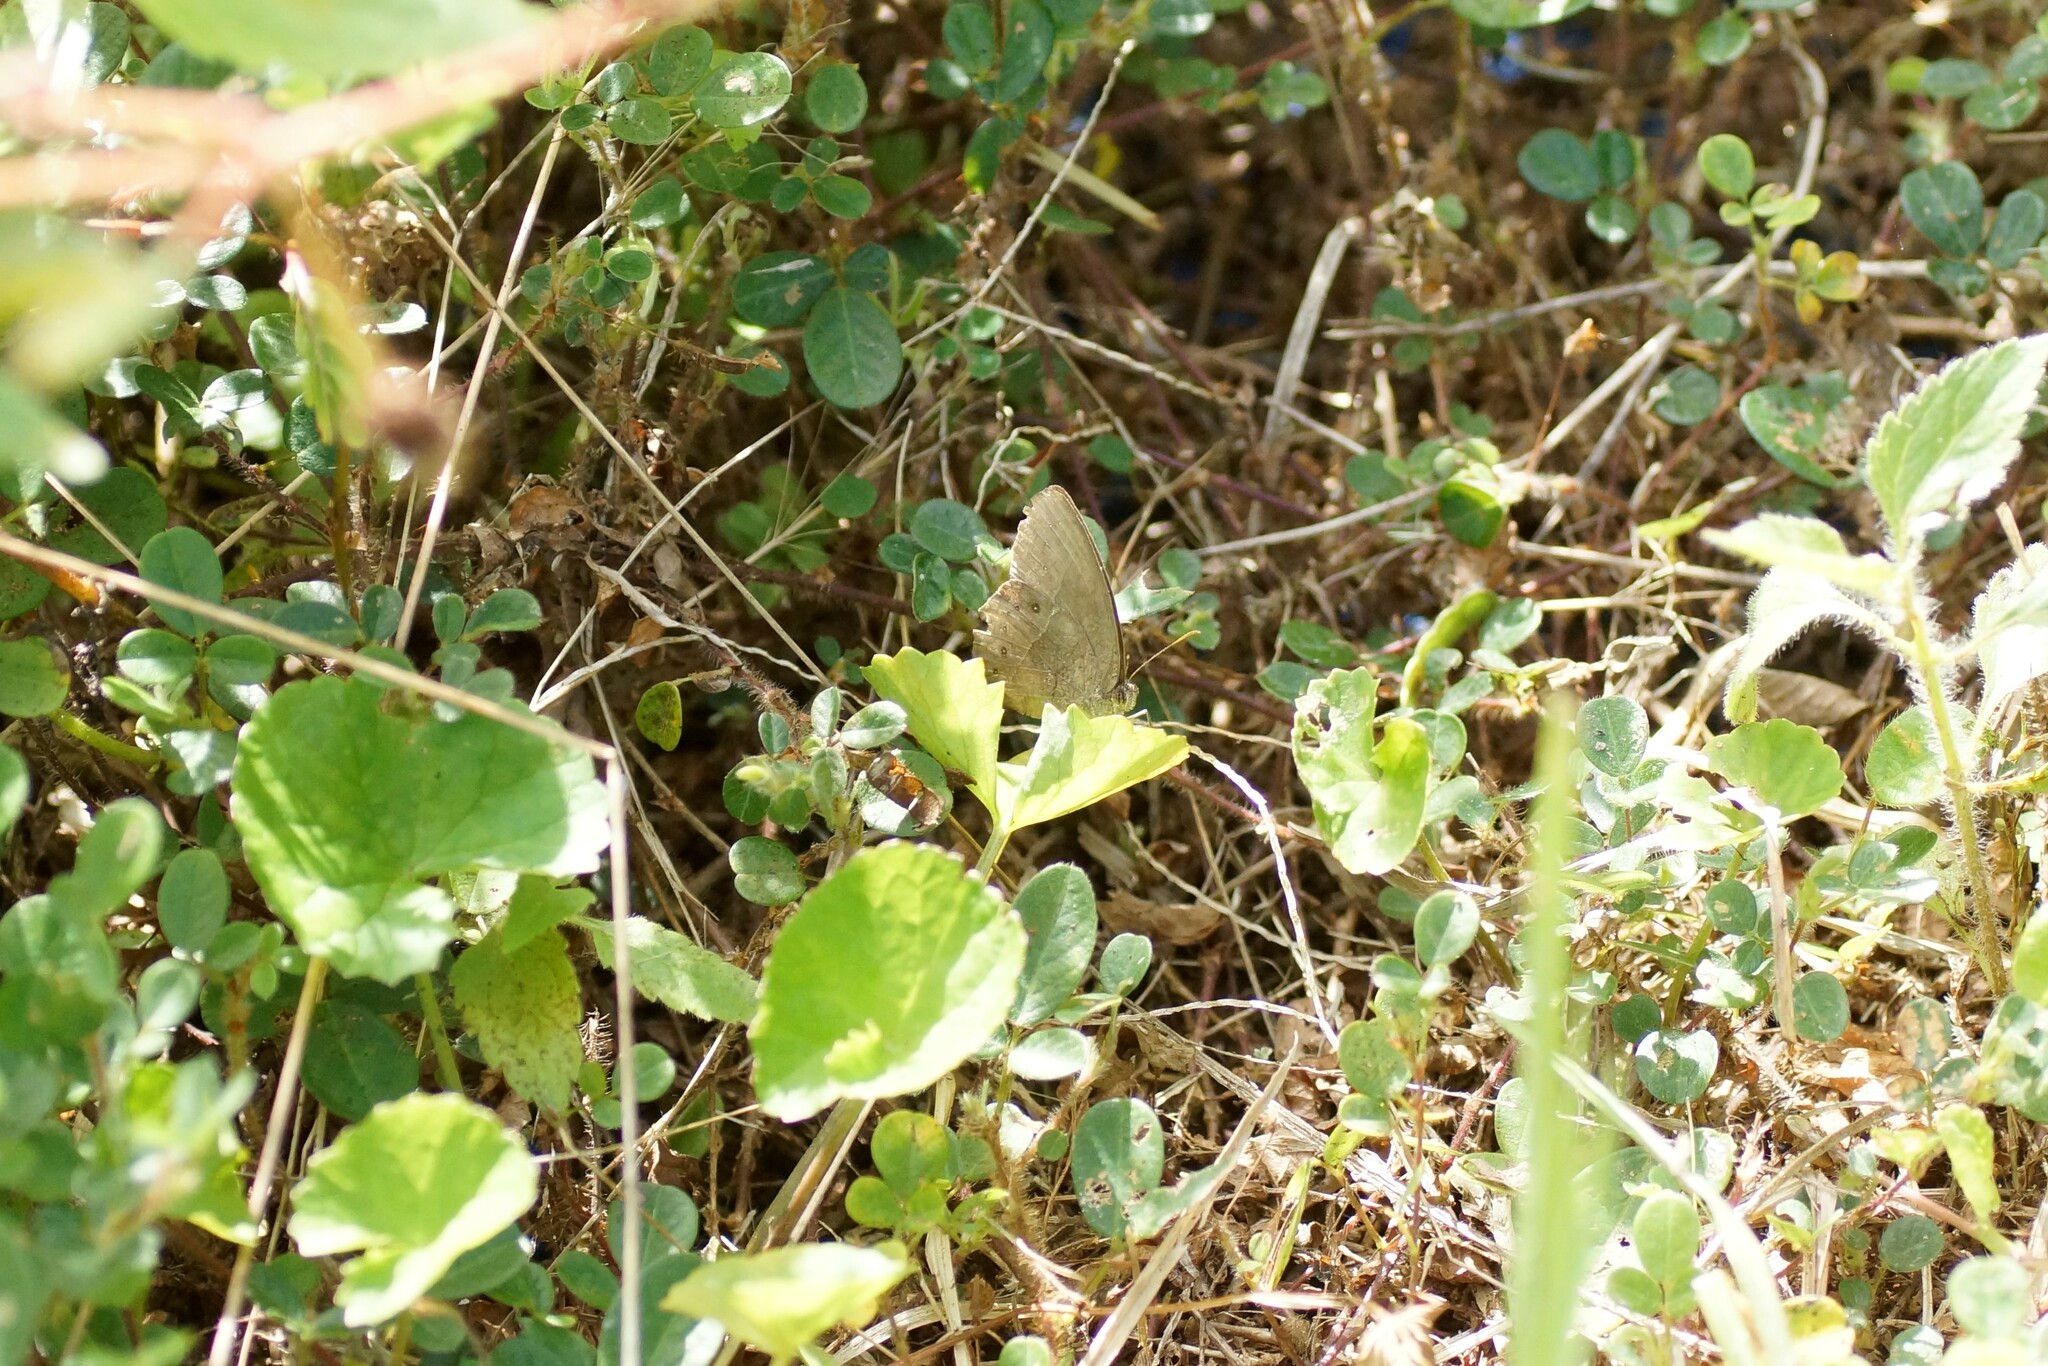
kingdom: Animalia
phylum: Arthropoda
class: Insecta
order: Lepidoptera
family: Nymphalidae
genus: Mycalesis
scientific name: Mycalesis perseus
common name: Dingy bushbrown
